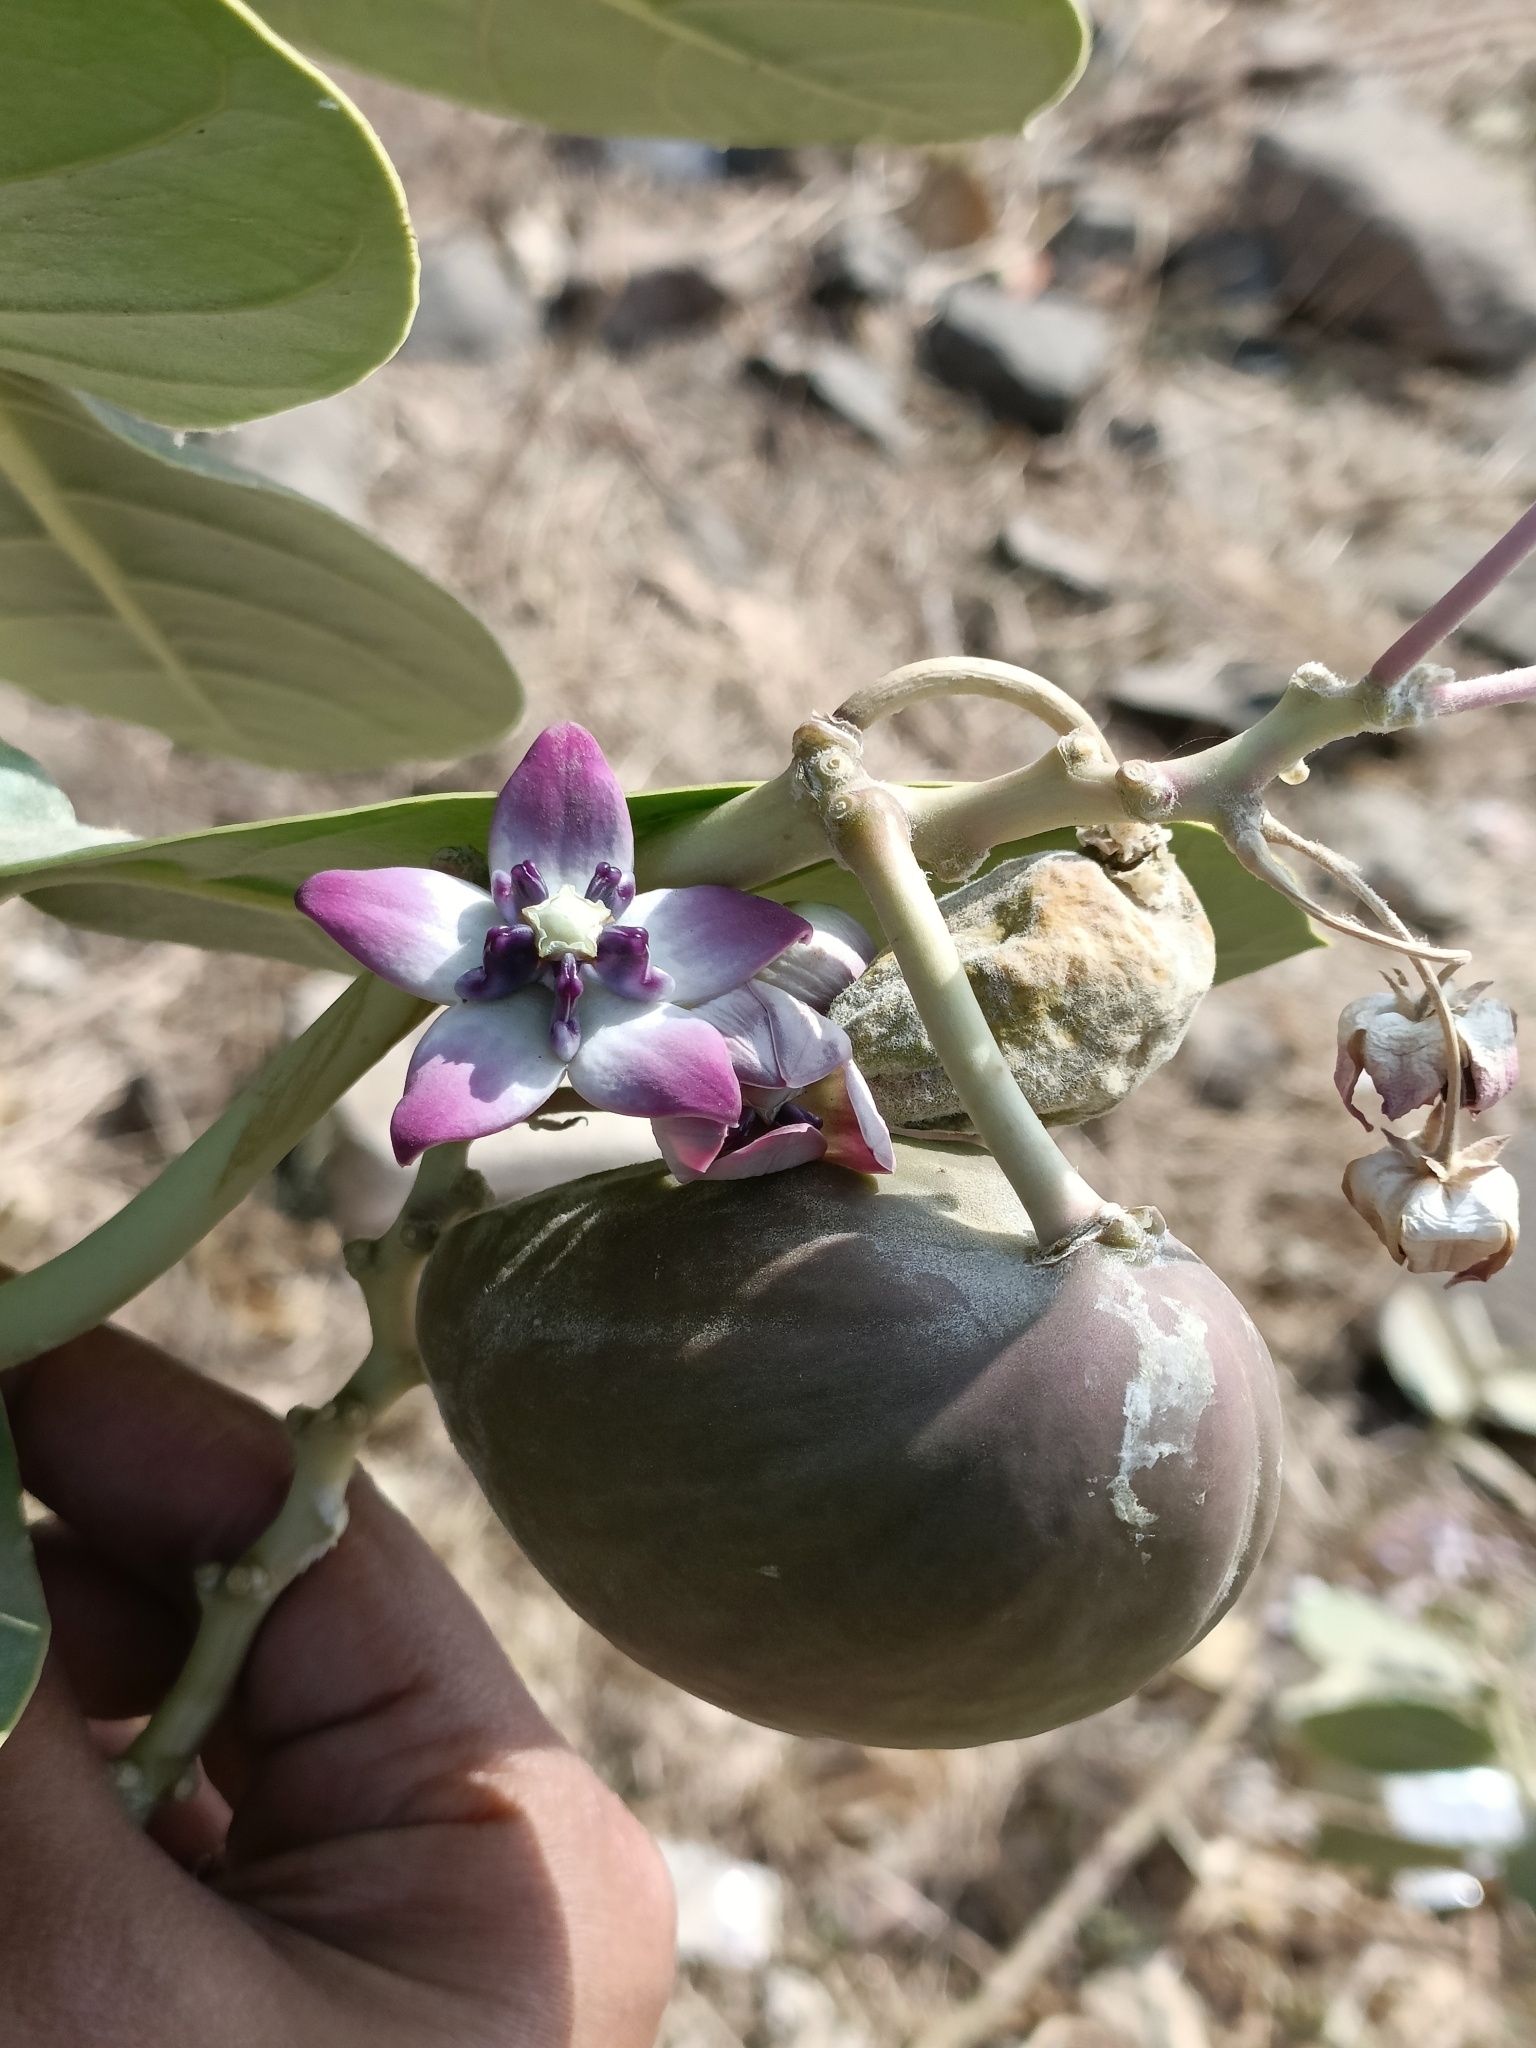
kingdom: Plantae
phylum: Tracheophyta
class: Magnoliopsida
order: Gentianales
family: Apocynaceae
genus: Calotropis
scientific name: Calotropis procera
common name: Roostertree
